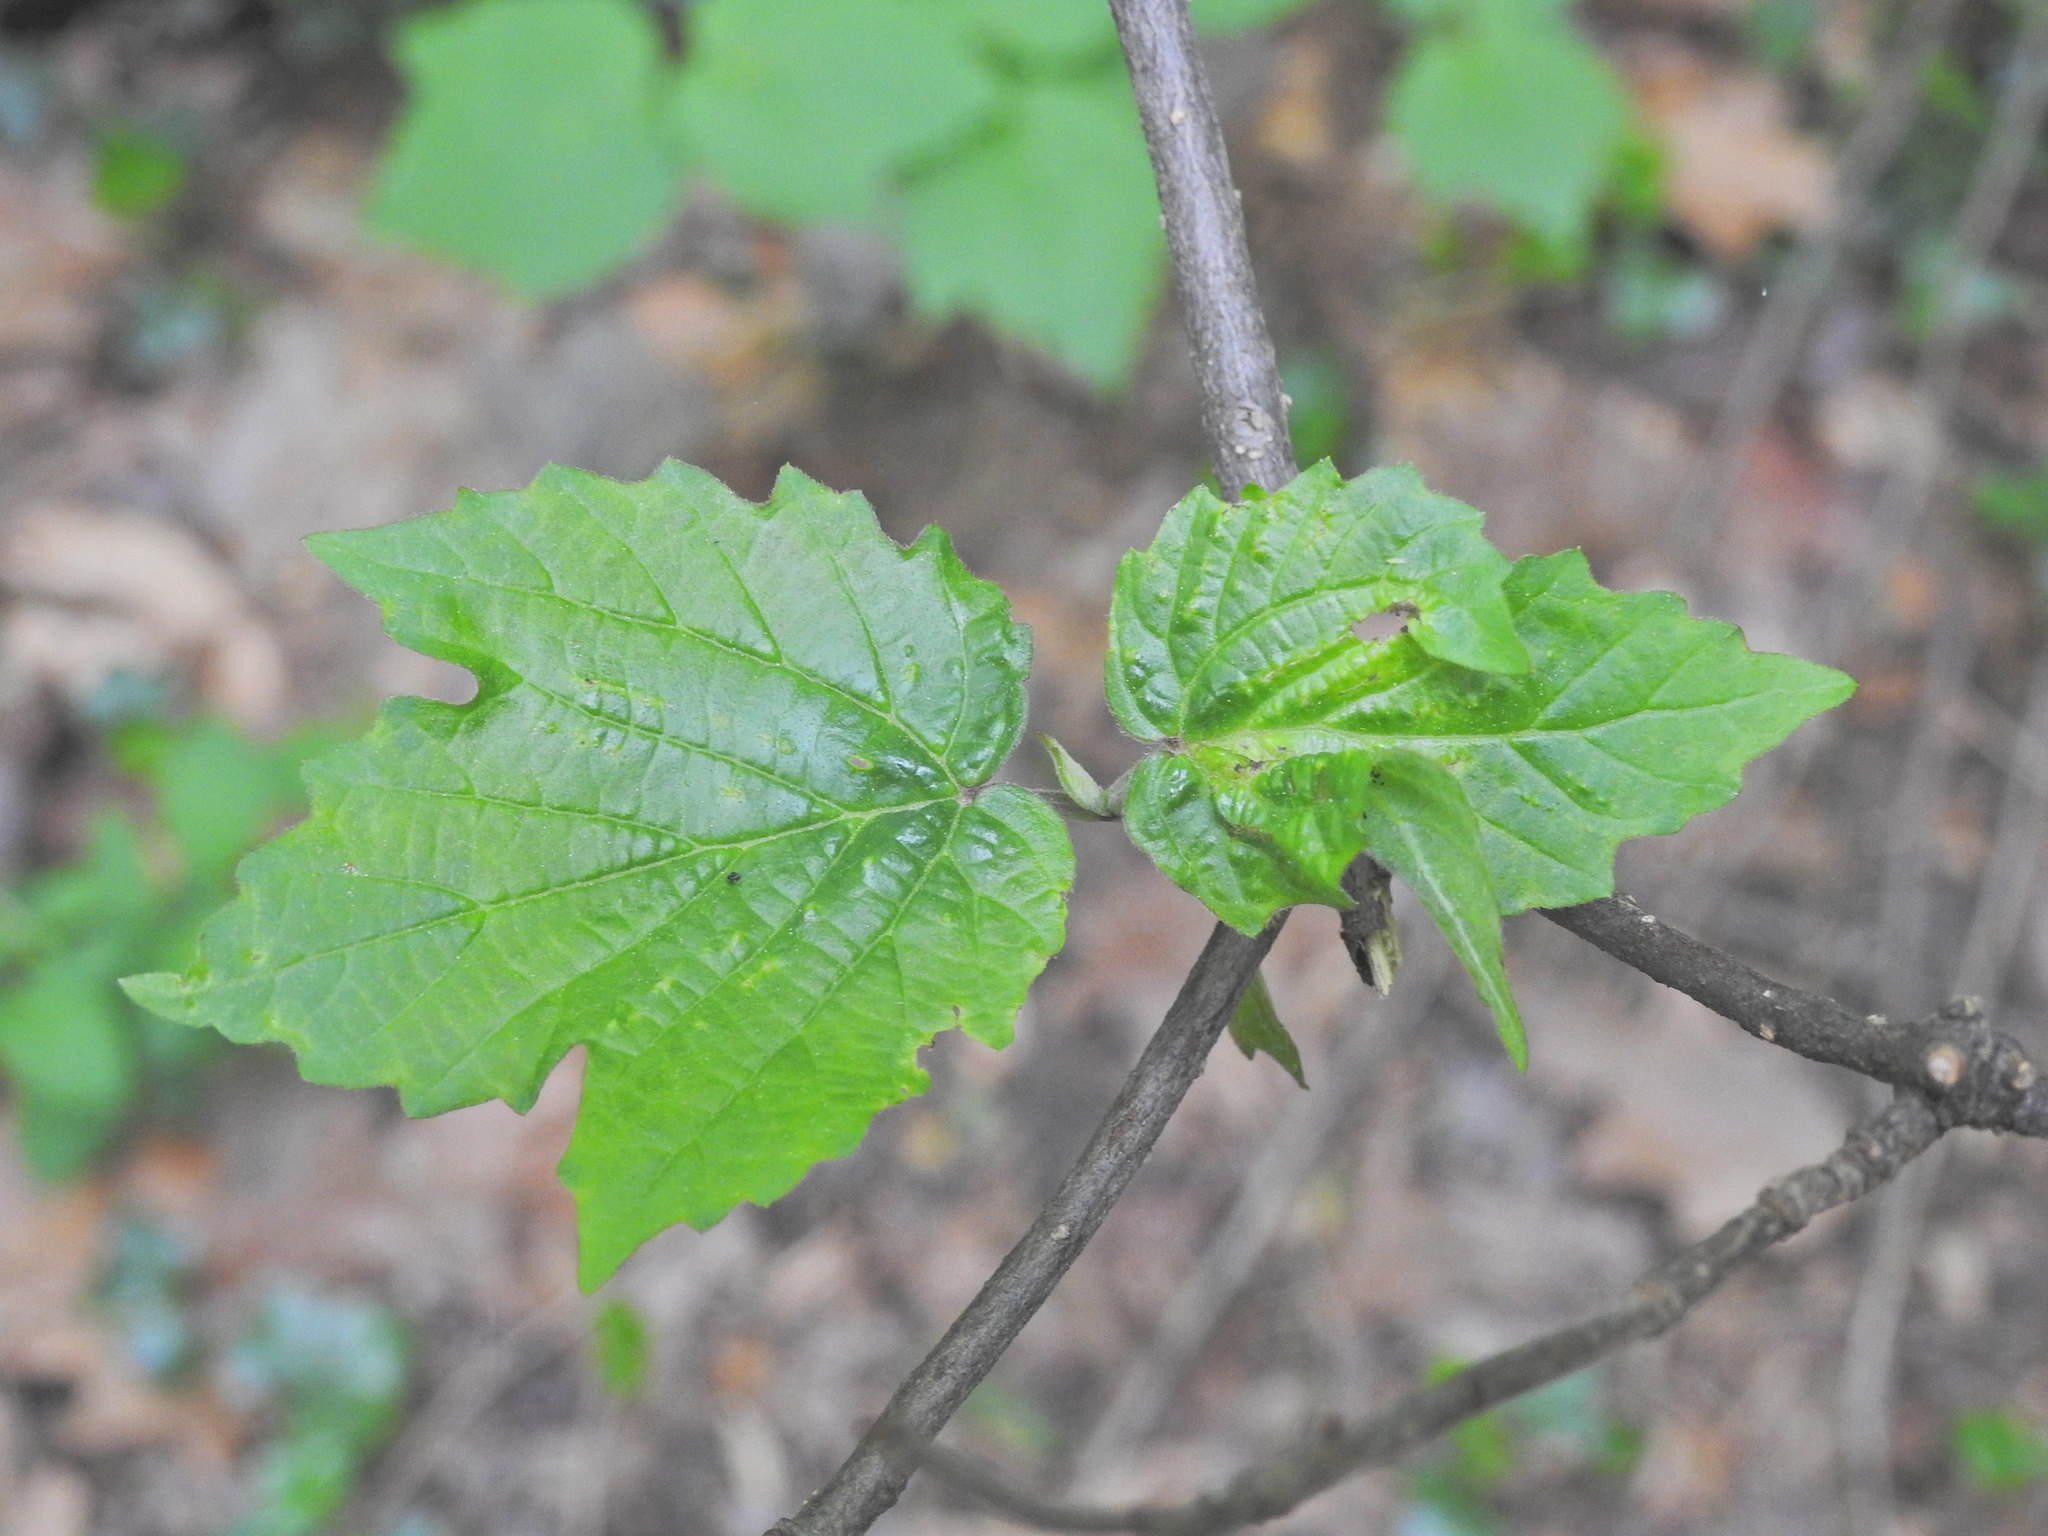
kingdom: Plantae
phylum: Tracheophyta
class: Magnoliopsida
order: Dipsacales
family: Viburnaceae
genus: Viburnum
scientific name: Viburnum acerifolium
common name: Dockmackie
